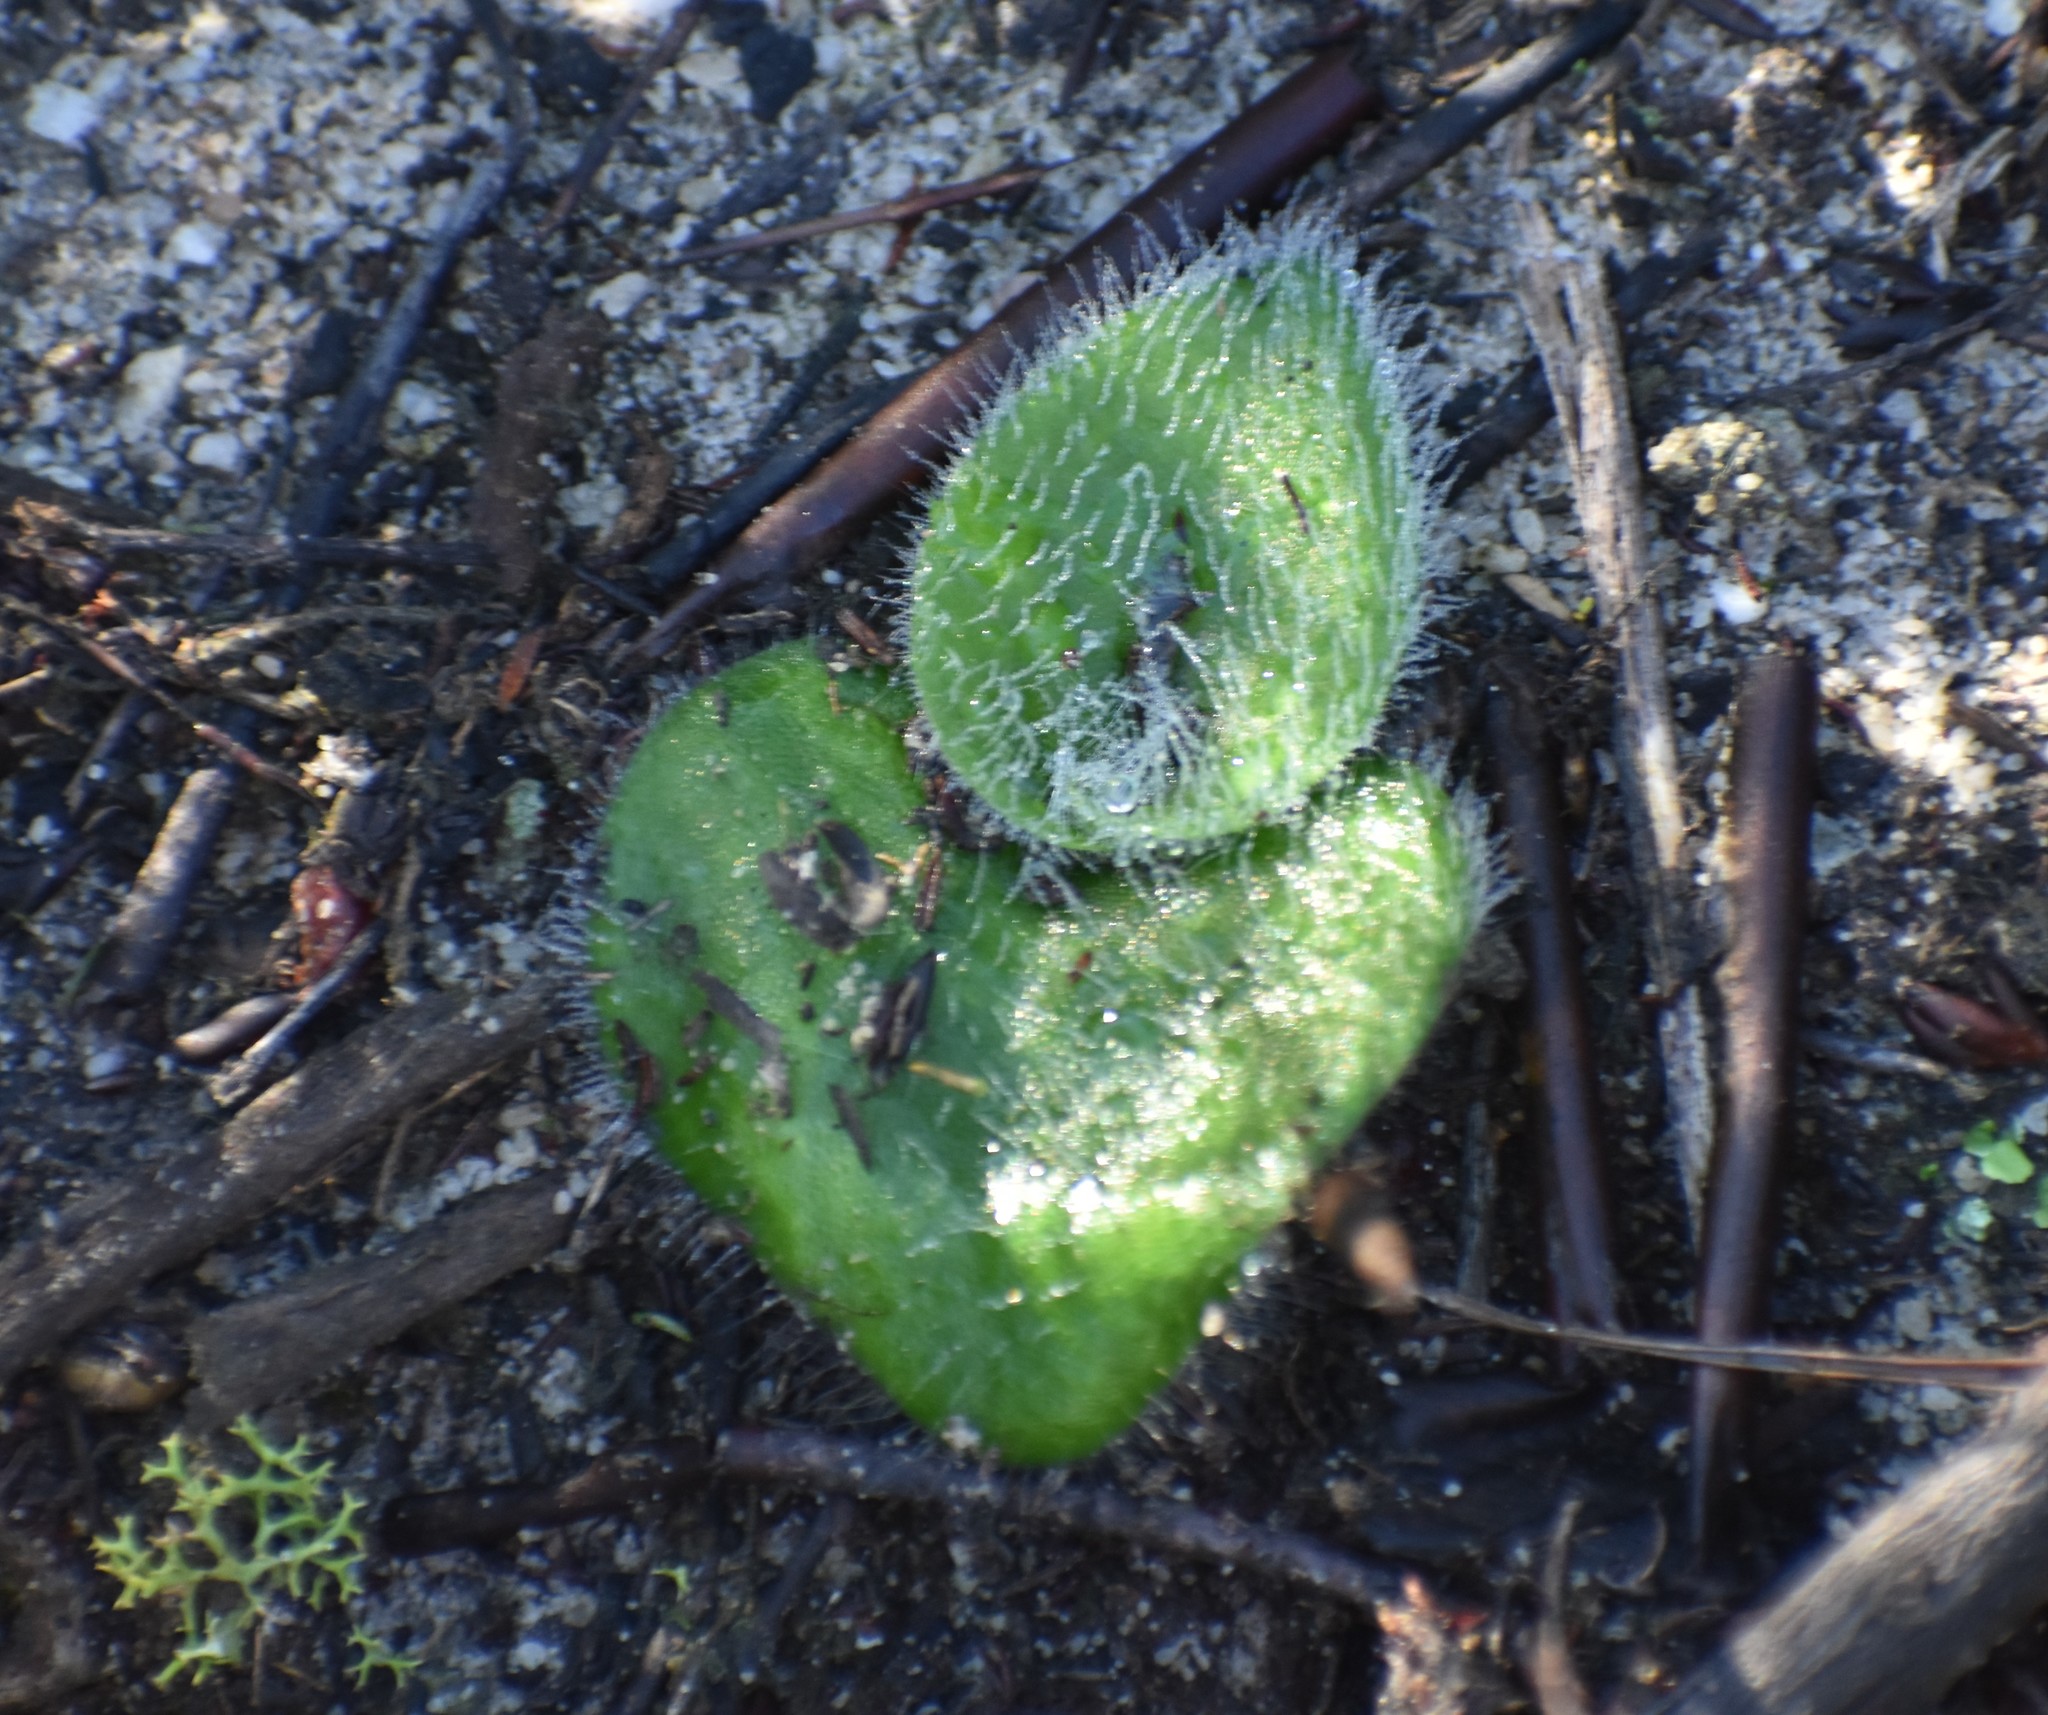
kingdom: Plantae
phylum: Tracheophyta
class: Liliopsida
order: Asparagales
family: Orchidaceae
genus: Holothrix
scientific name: Holothrix villosa
